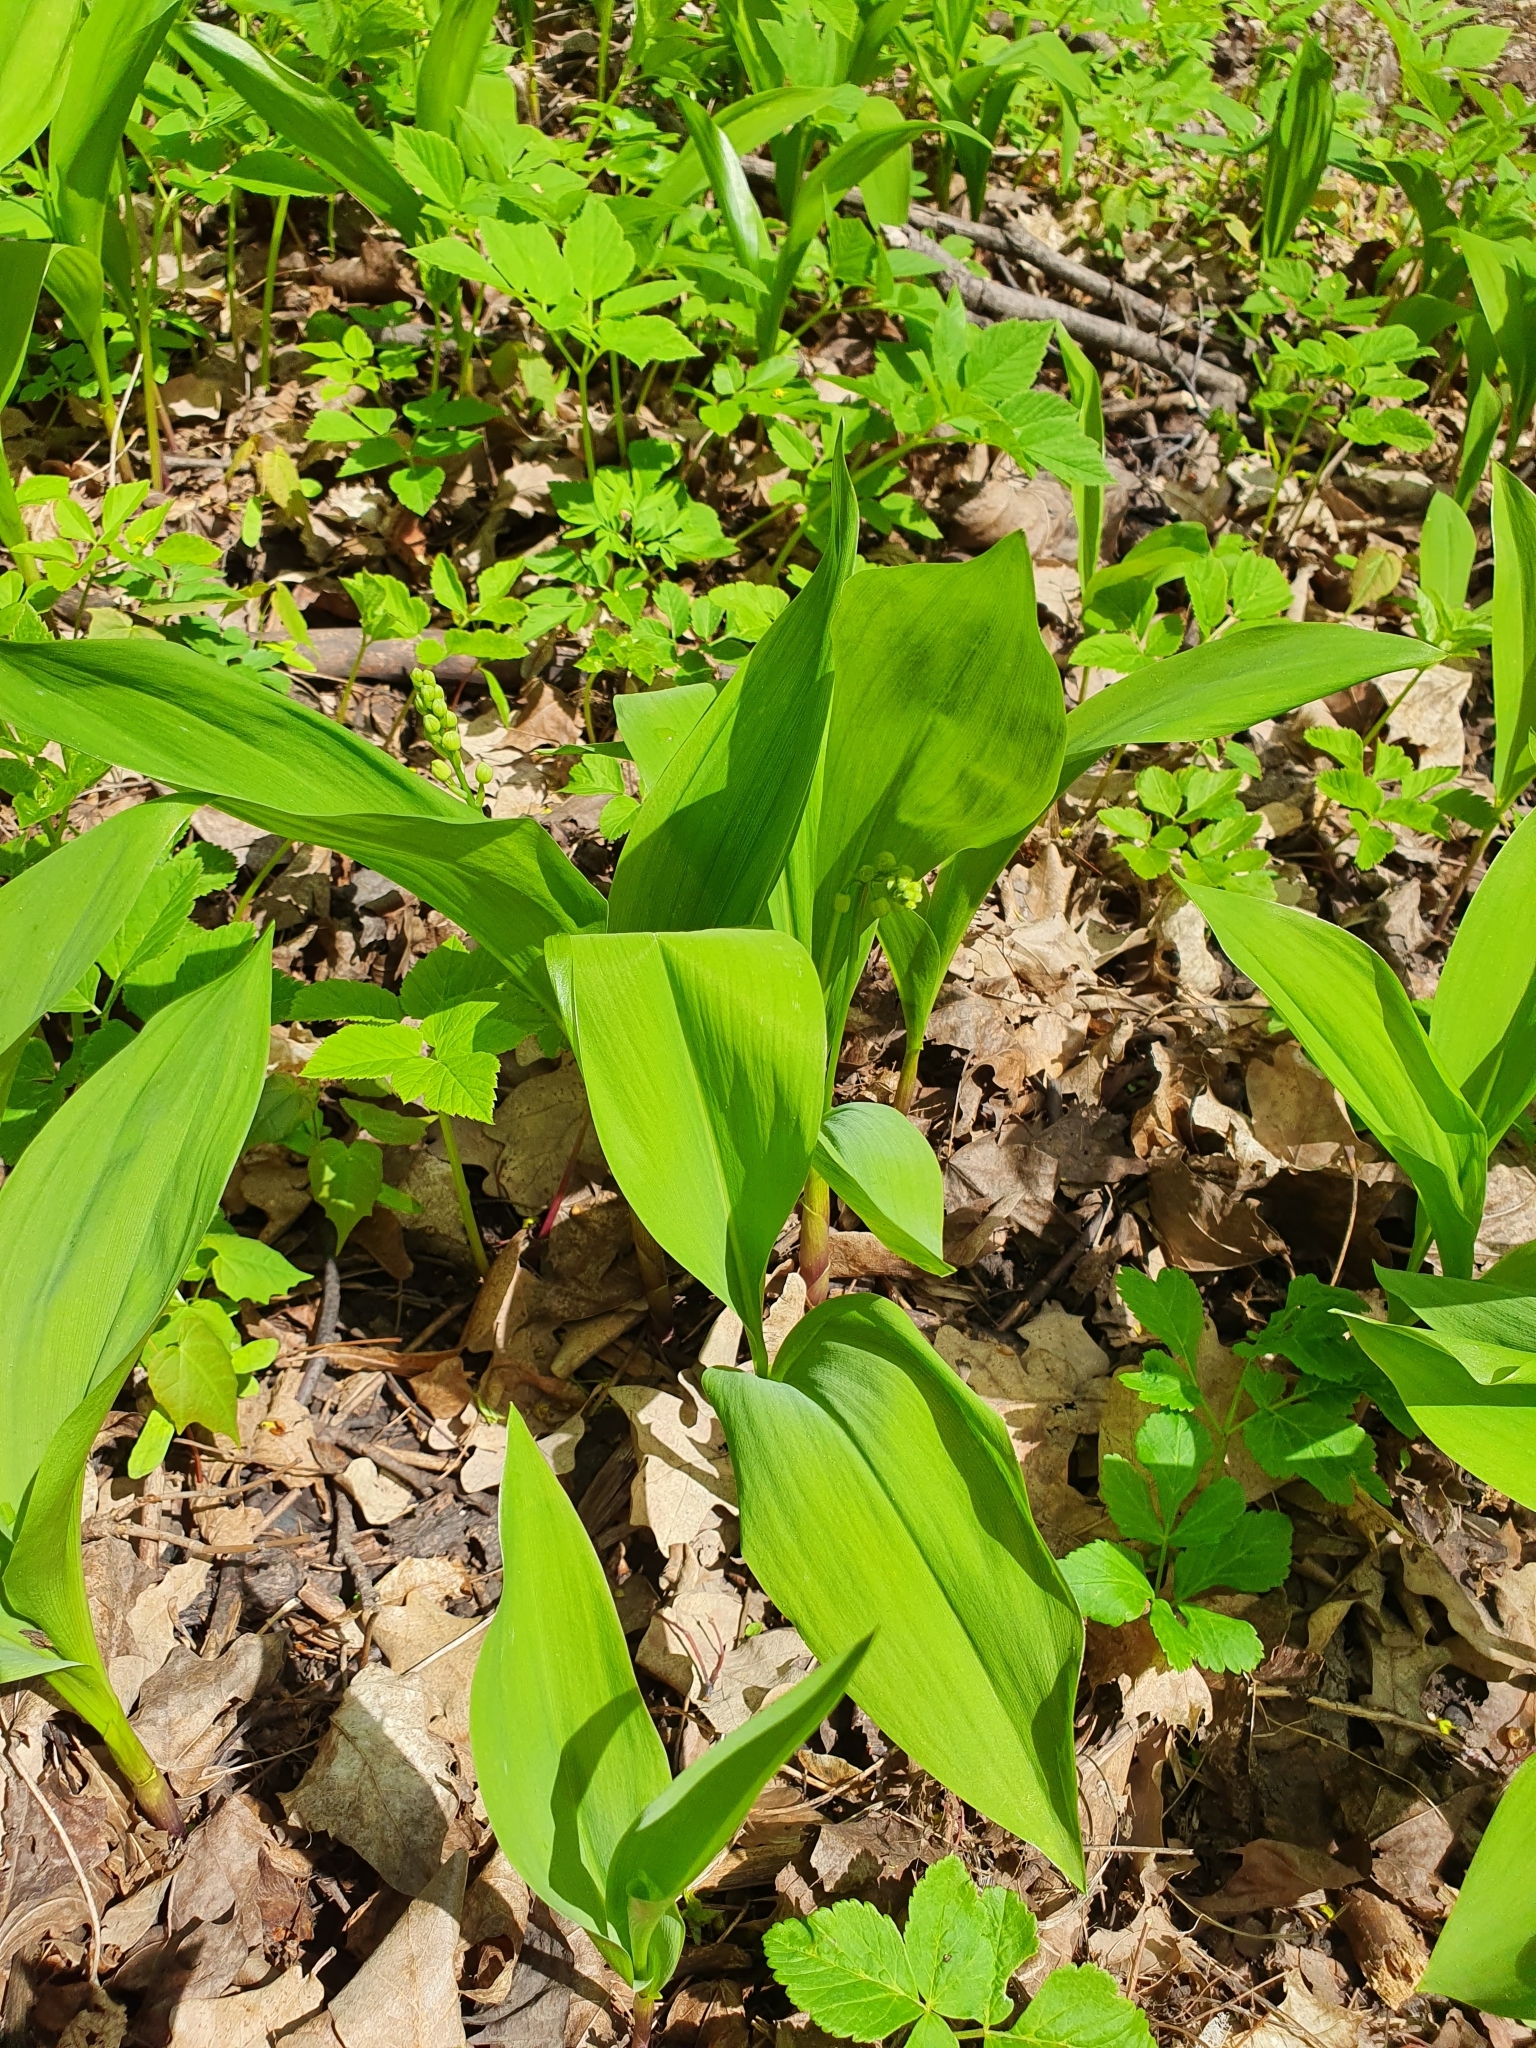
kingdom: Plantae
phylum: Tracheophyta
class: Liliopsida
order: Asparagales
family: Asparagaceae
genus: Convallaria
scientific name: Convallaria majalis
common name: Lily-of-the-valley
